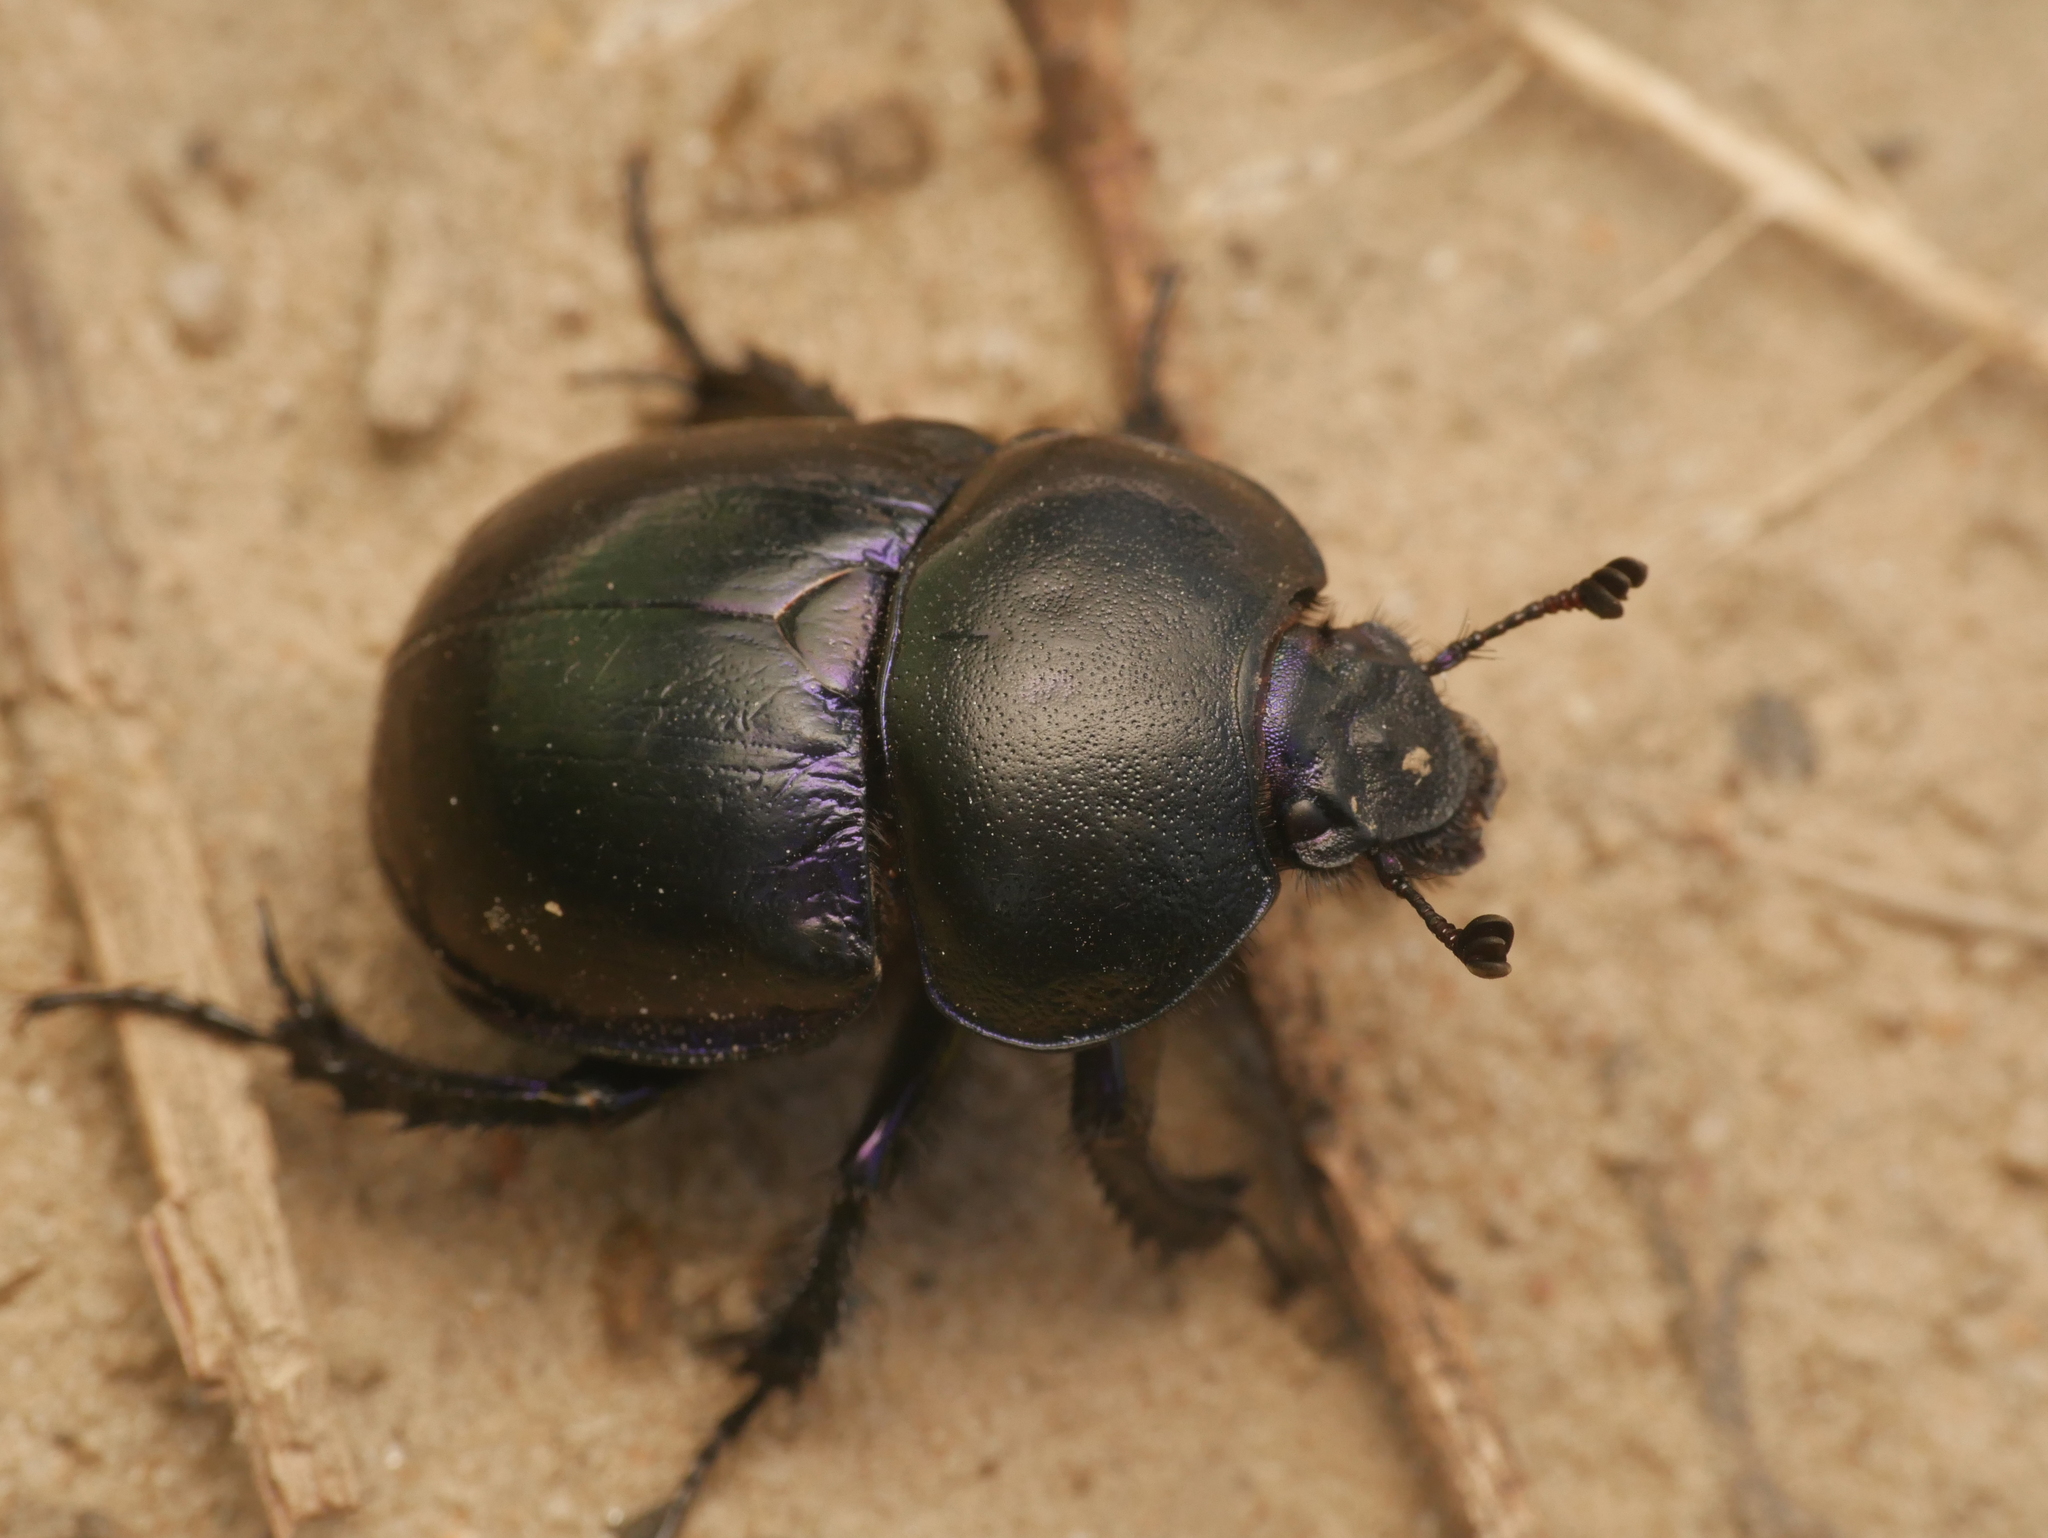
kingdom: Animalia
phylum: Arthropoda
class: Insecta
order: Coleoptera
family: Geotrupidae
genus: Trypocopris
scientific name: Trypocopris vernalis
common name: Spring dumbledor
